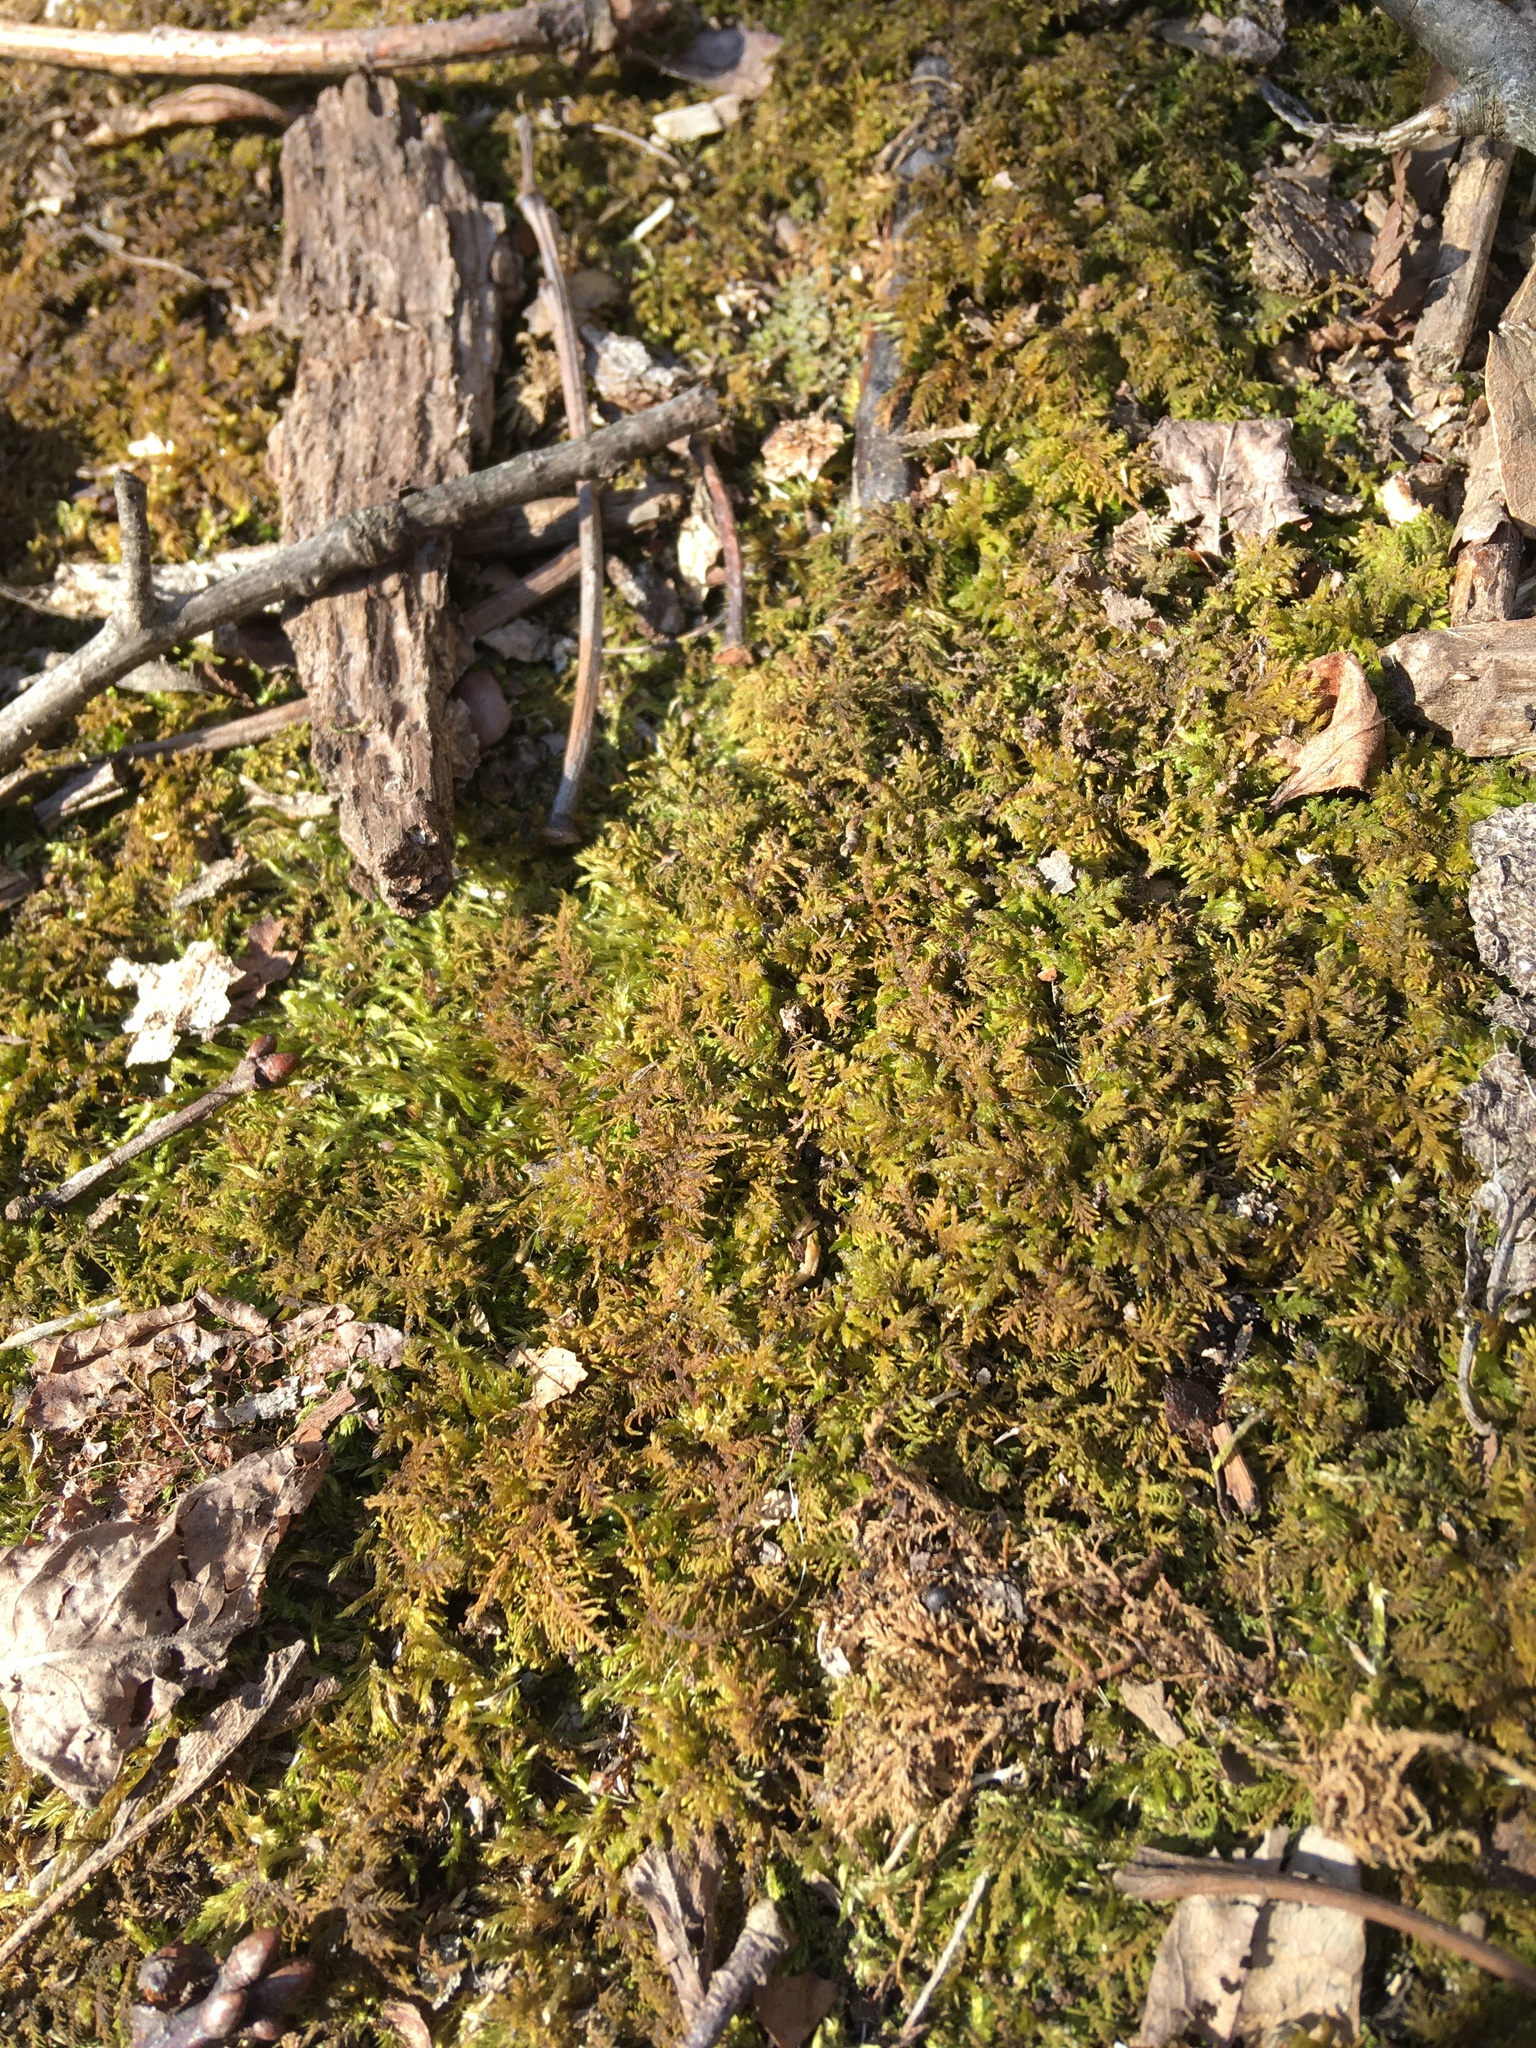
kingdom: Plantae
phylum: Bryophyta
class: Bryopsida
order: Hypnales
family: Thuidiaceae
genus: Thuidium
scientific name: Thuidium delicatulum
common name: Delicate fern moss
